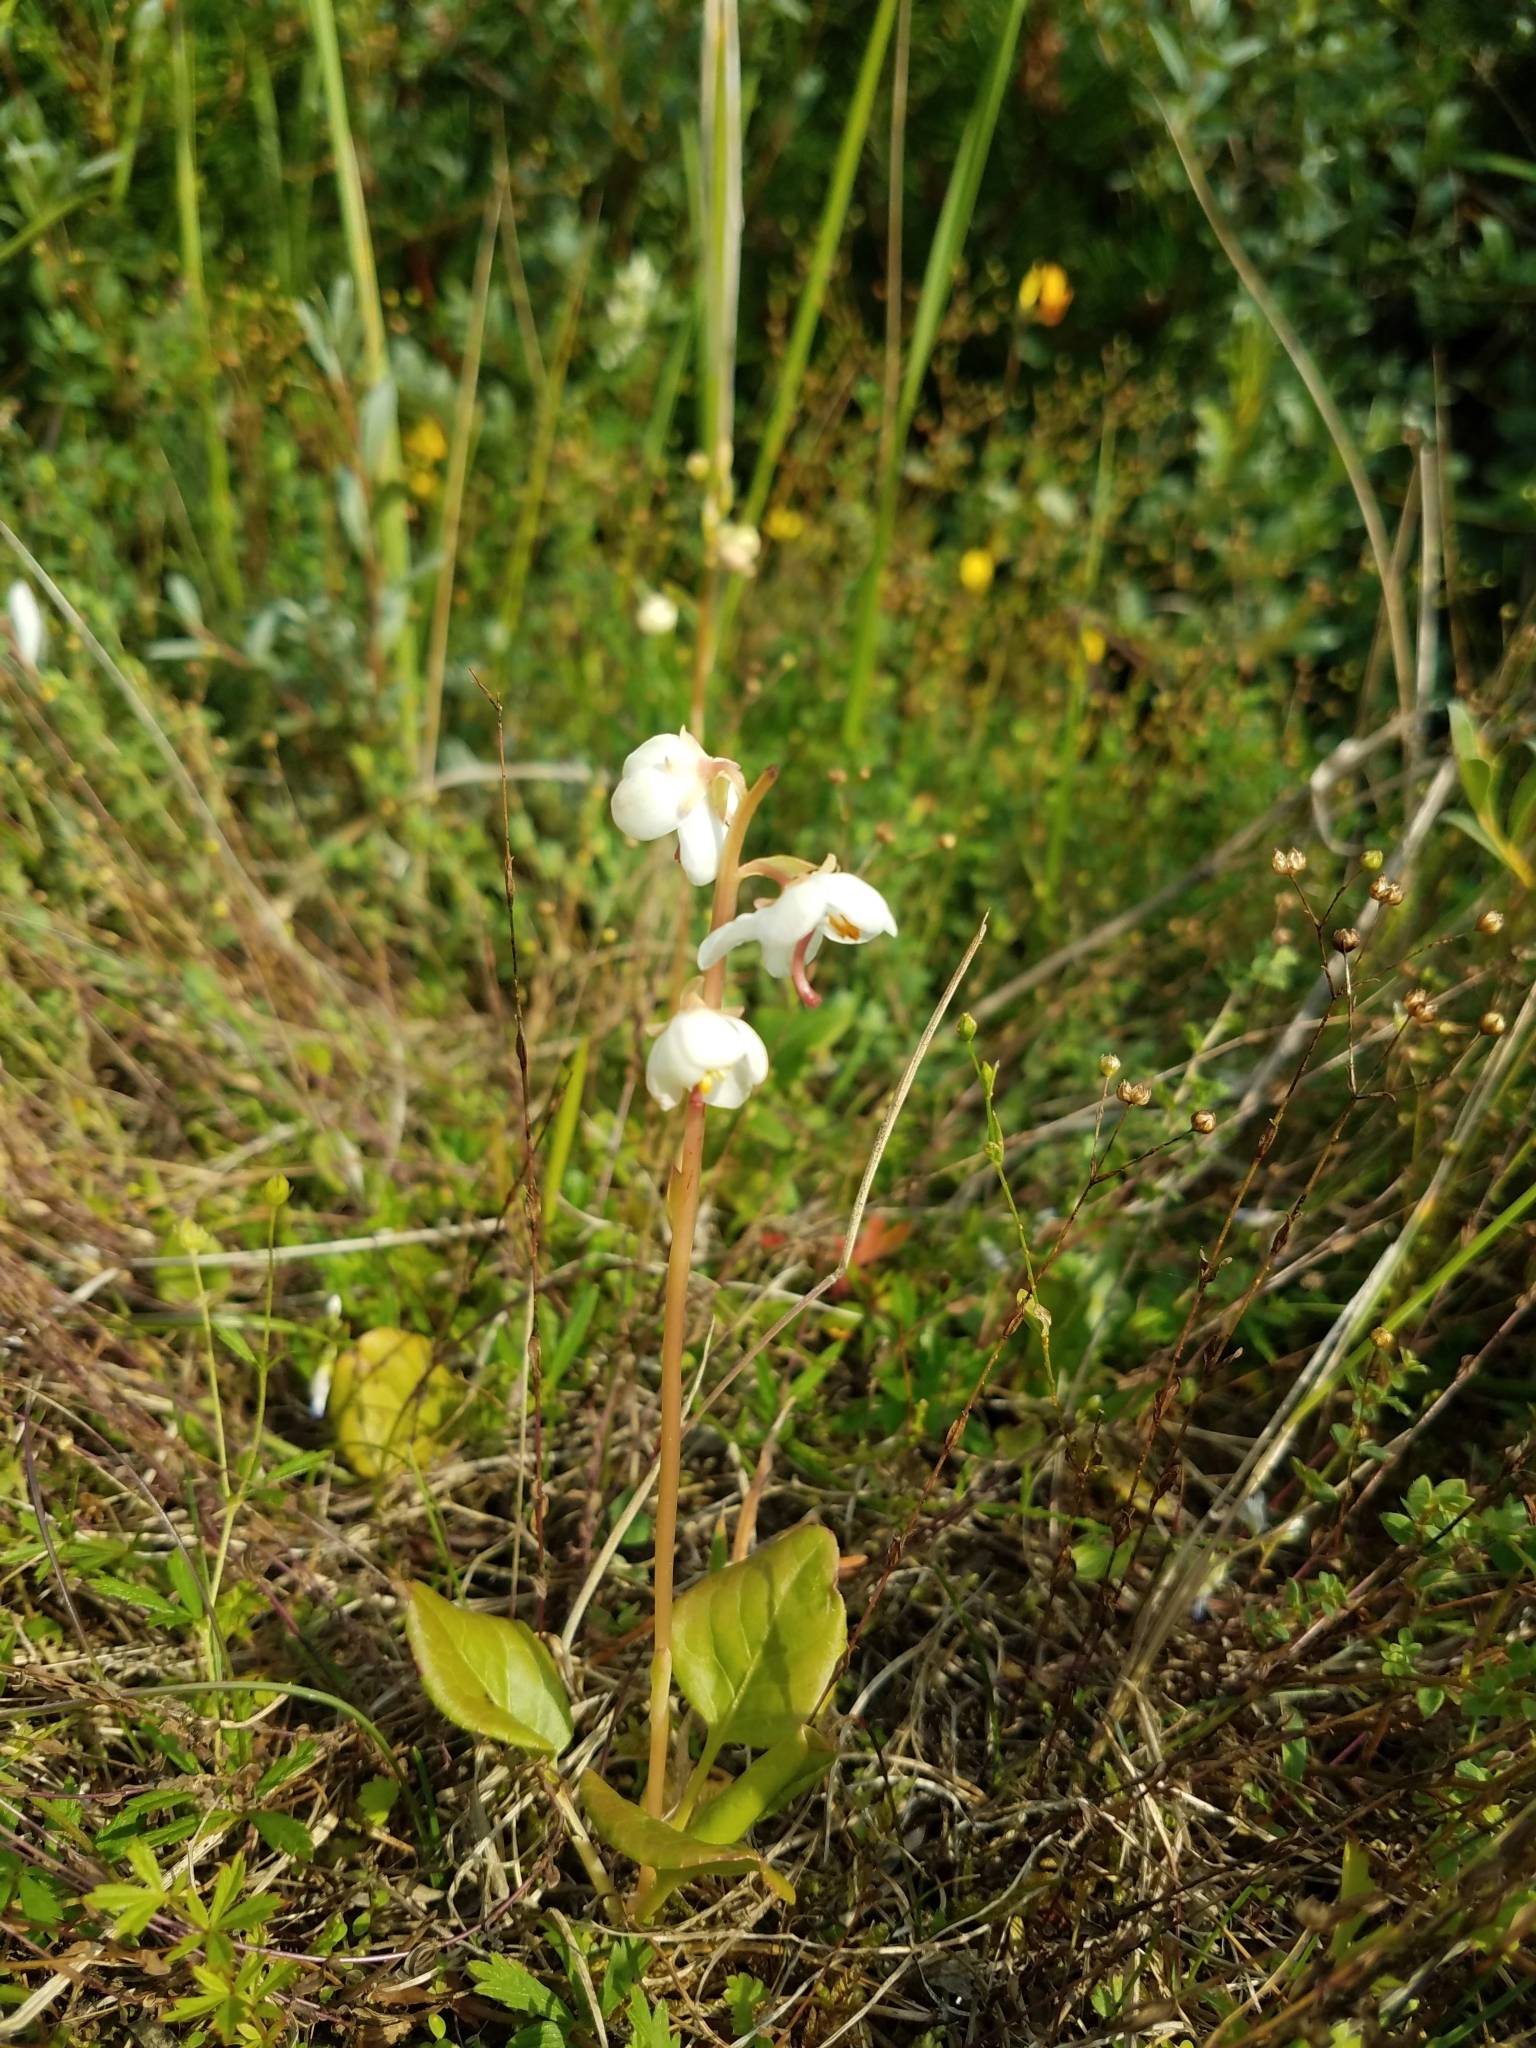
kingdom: Plantae
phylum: Tracheophyta
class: Magnoliopsida
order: Ericales
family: Ericaceae
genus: Pyrola
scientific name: Pyrola rotundifolia
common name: Round-leaved wintergreen
